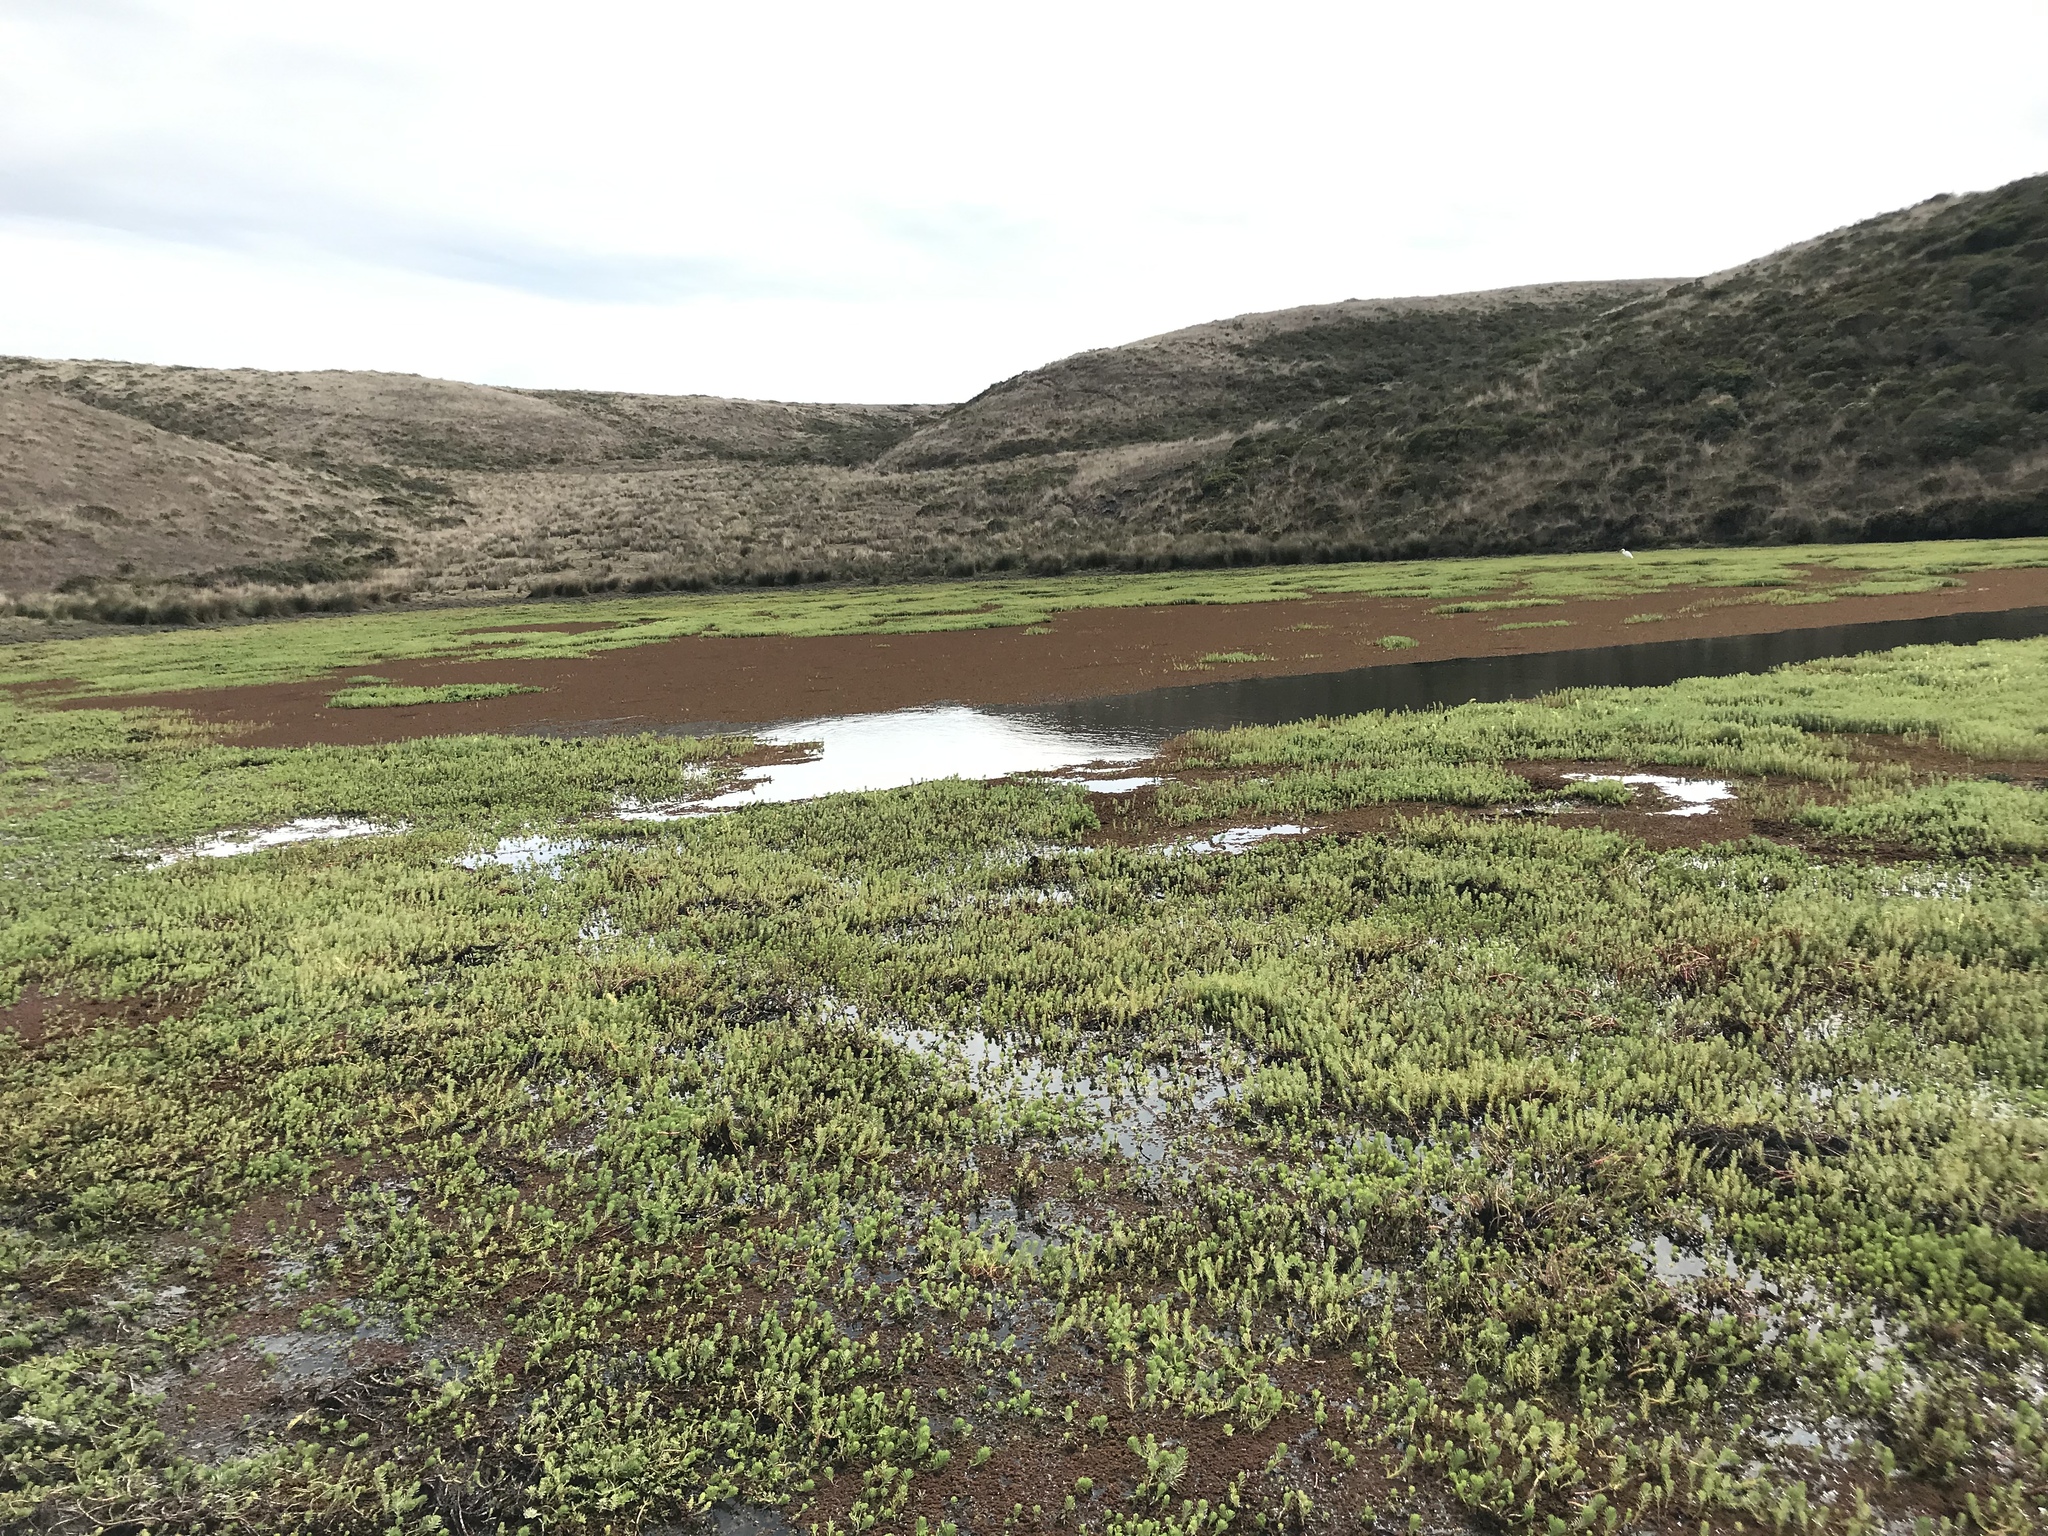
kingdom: Plantae
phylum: Tracheophyta
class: Polypodiopsida
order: Salviniales
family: Salviniaceae
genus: Azolla
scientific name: Azolla filiculoides
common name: Water fern
